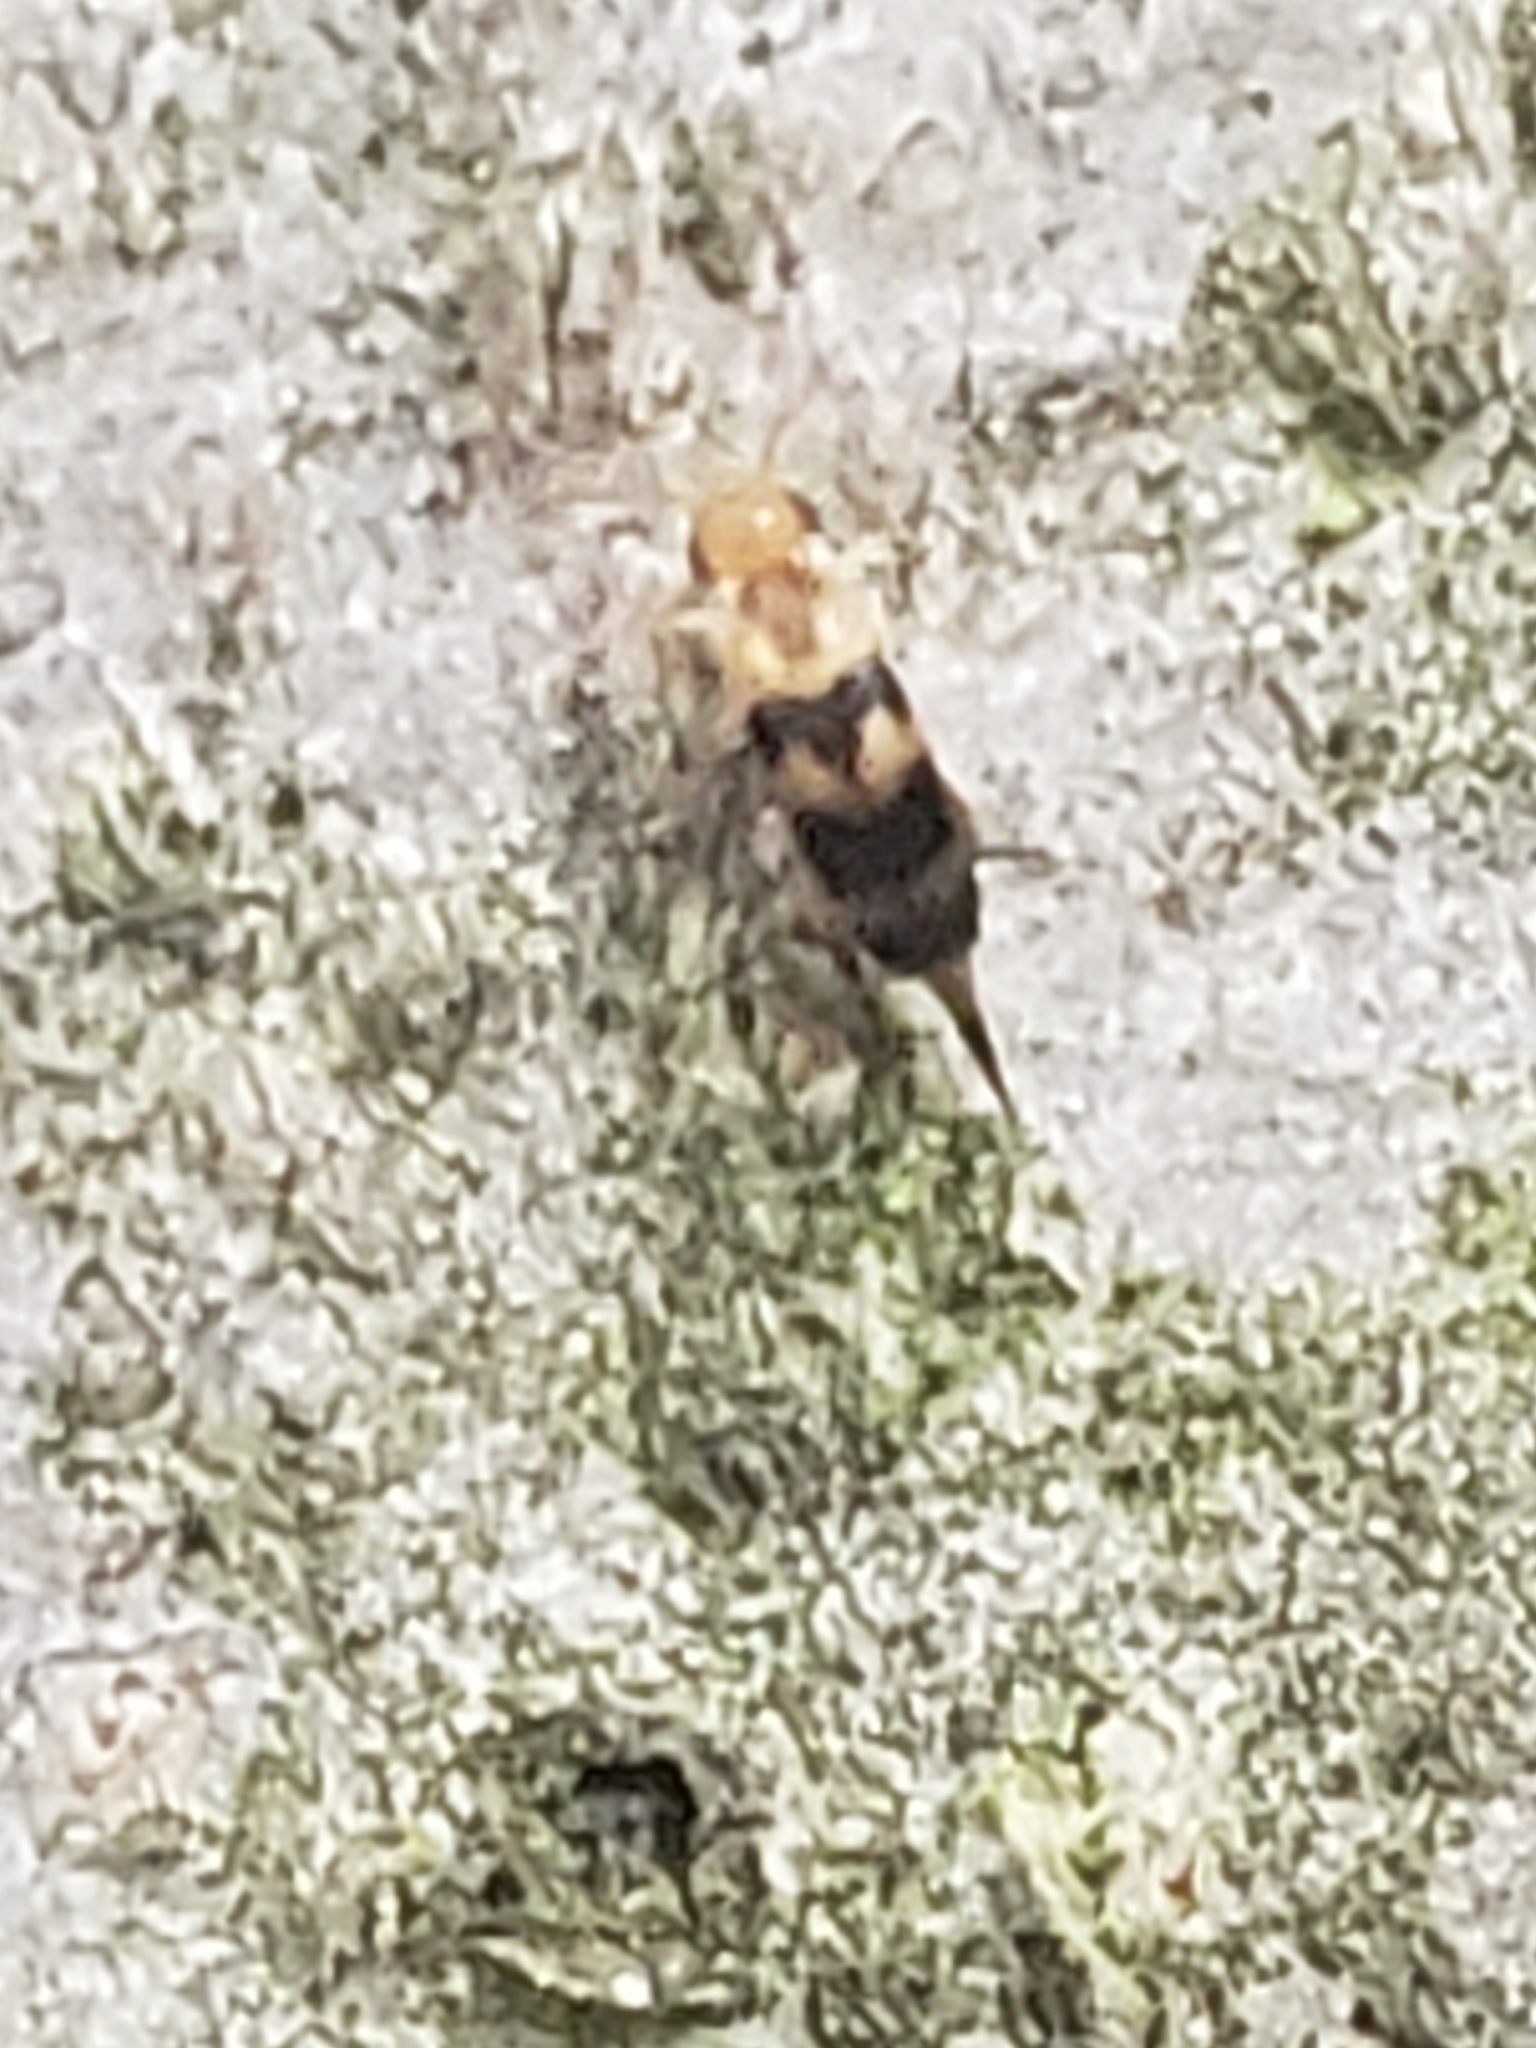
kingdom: Animalia
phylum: Arthropoda
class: Insecta
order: Coleoptera
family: Mordellidae
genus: Mordellistena
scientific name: Mordellistena trifasciata
